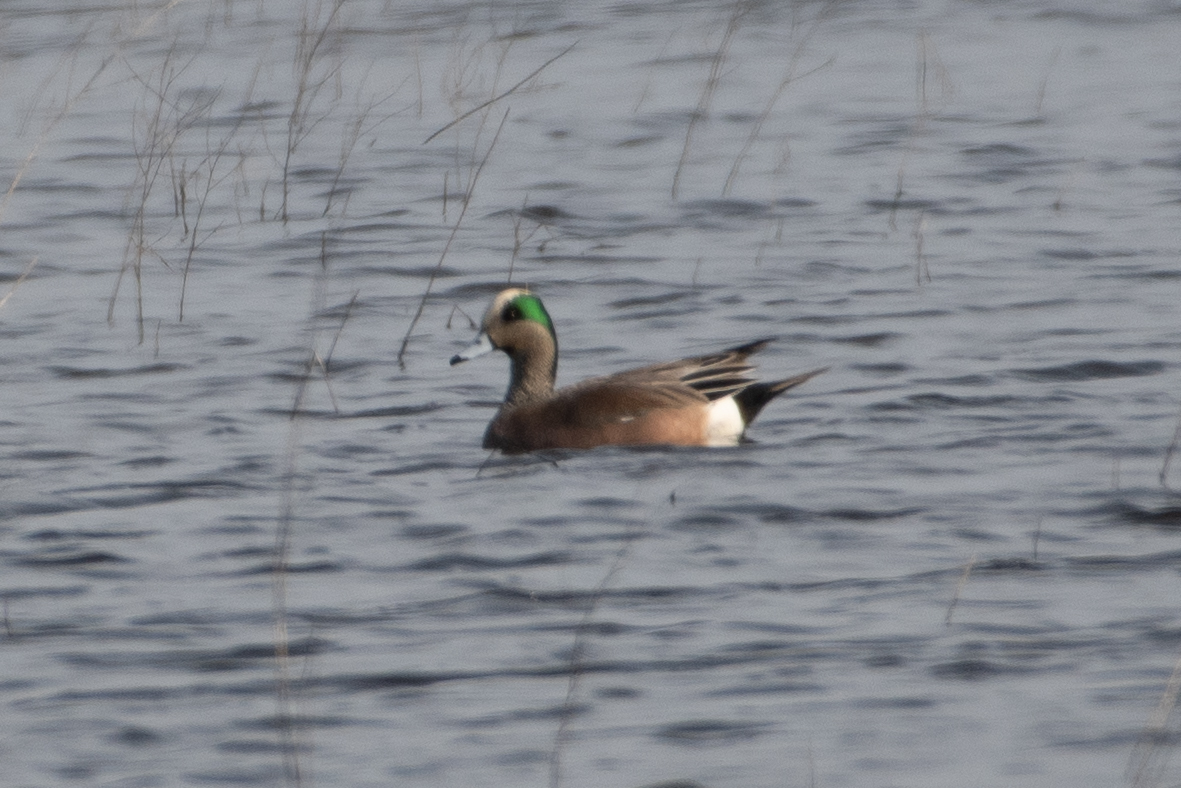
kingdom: Animalia
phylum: Chordata
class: Aves
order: Anseriformes
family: Anatidae
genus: Mareca
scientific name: Mareca americana
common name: American wigeon
